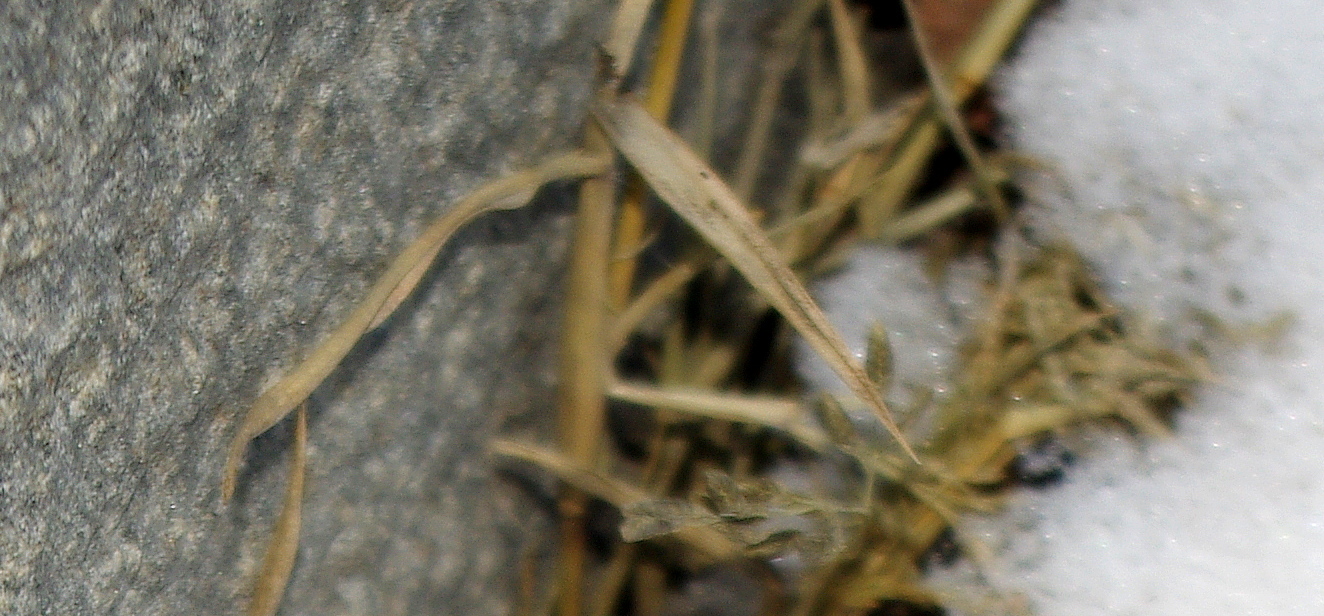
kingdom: Plantae
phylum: Tracheophyta
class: Liliopsida
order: Poales
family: Poaceae
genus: Eragrostis
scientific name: Eragrostis minor
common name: Small love-grass
